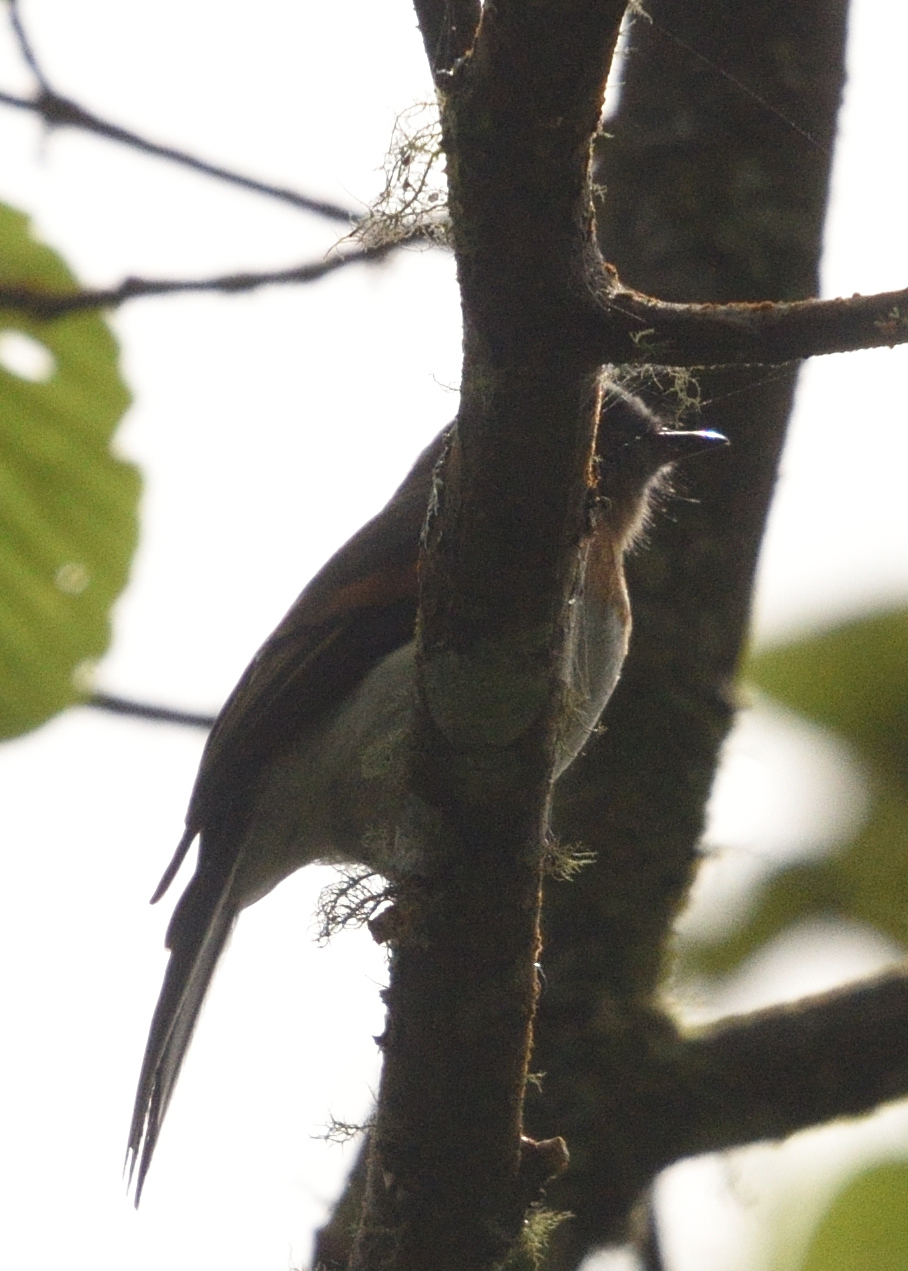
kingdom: Animalia
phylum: Chordata
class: Aves
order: Passeriformes
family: Tyrannidae
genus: Ochthoeca
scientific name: Ochthoeca rufipectoralis
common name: Rufous-breasted chat-tyrant
